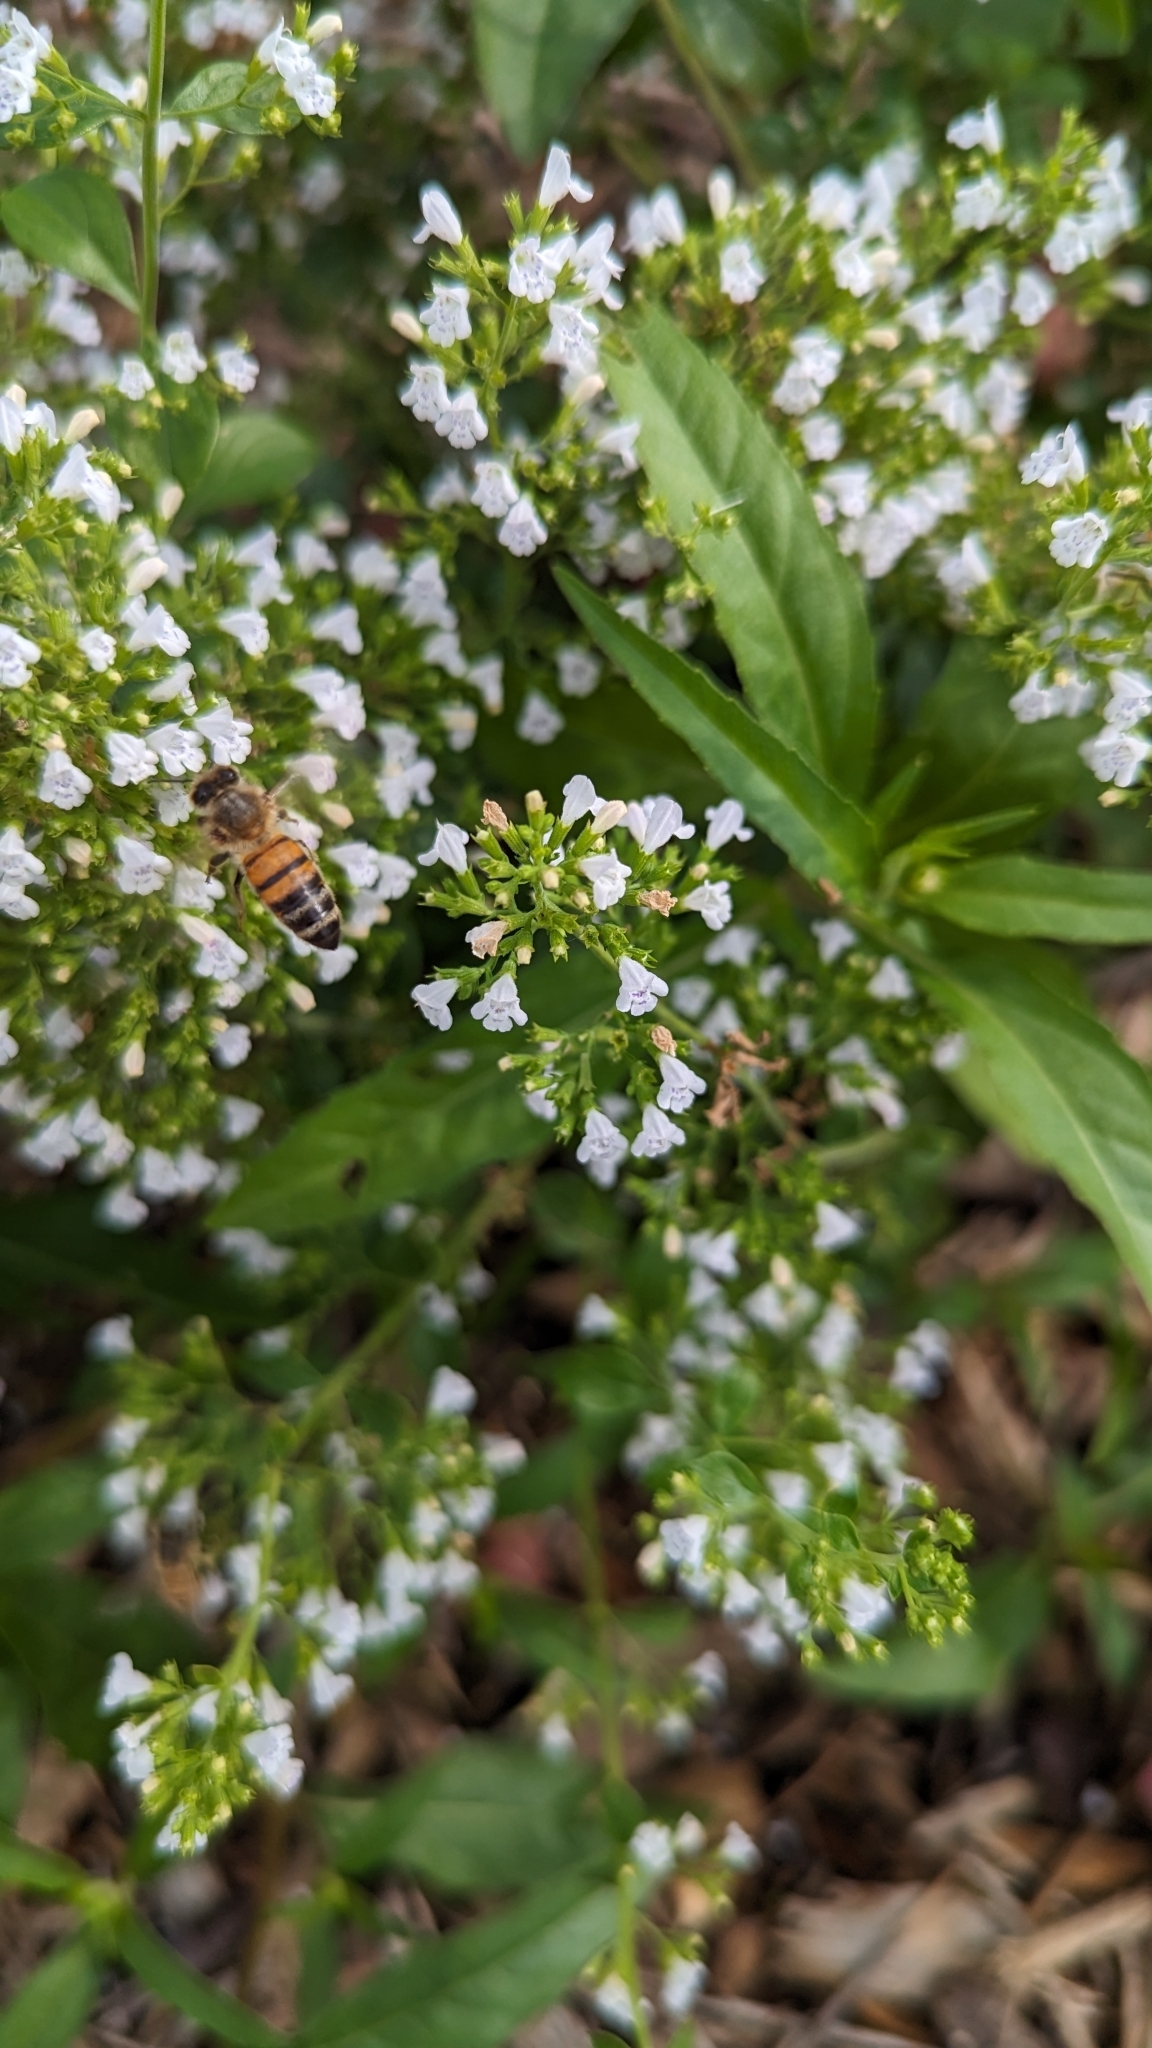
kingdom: Animalia
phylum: Arthropoda
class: Insecta
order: Hymenoptera
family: Apidae
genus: Apis
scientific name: Apis mellifera
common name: Honey bee
